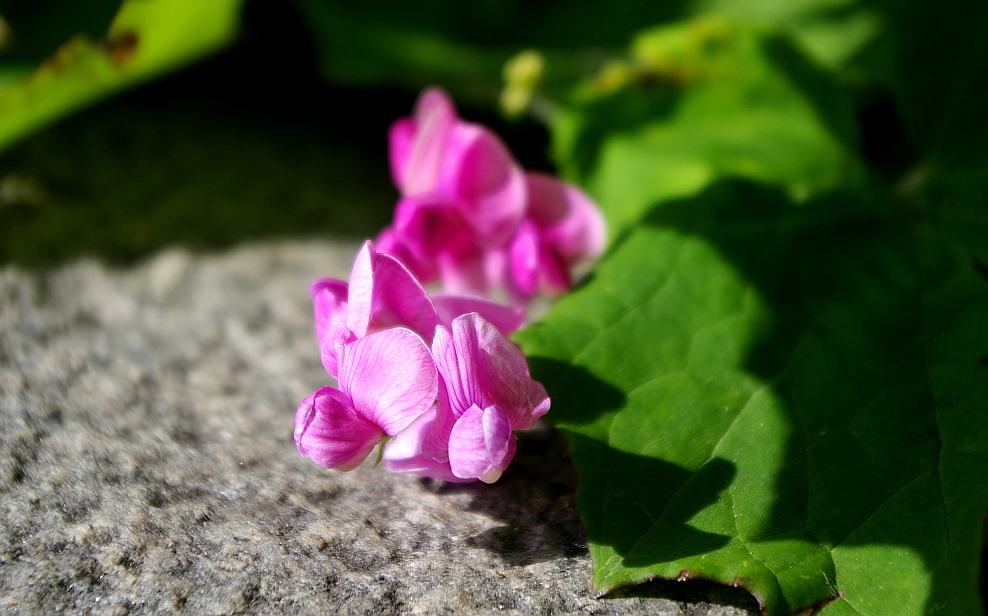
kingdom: Plantae
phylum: Tracheophyta
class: Magnoliopsida
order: Fabales
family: Fabaceae
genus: Lathyrus
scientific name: Lathyrus tuberosus
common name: Tuberous pea
